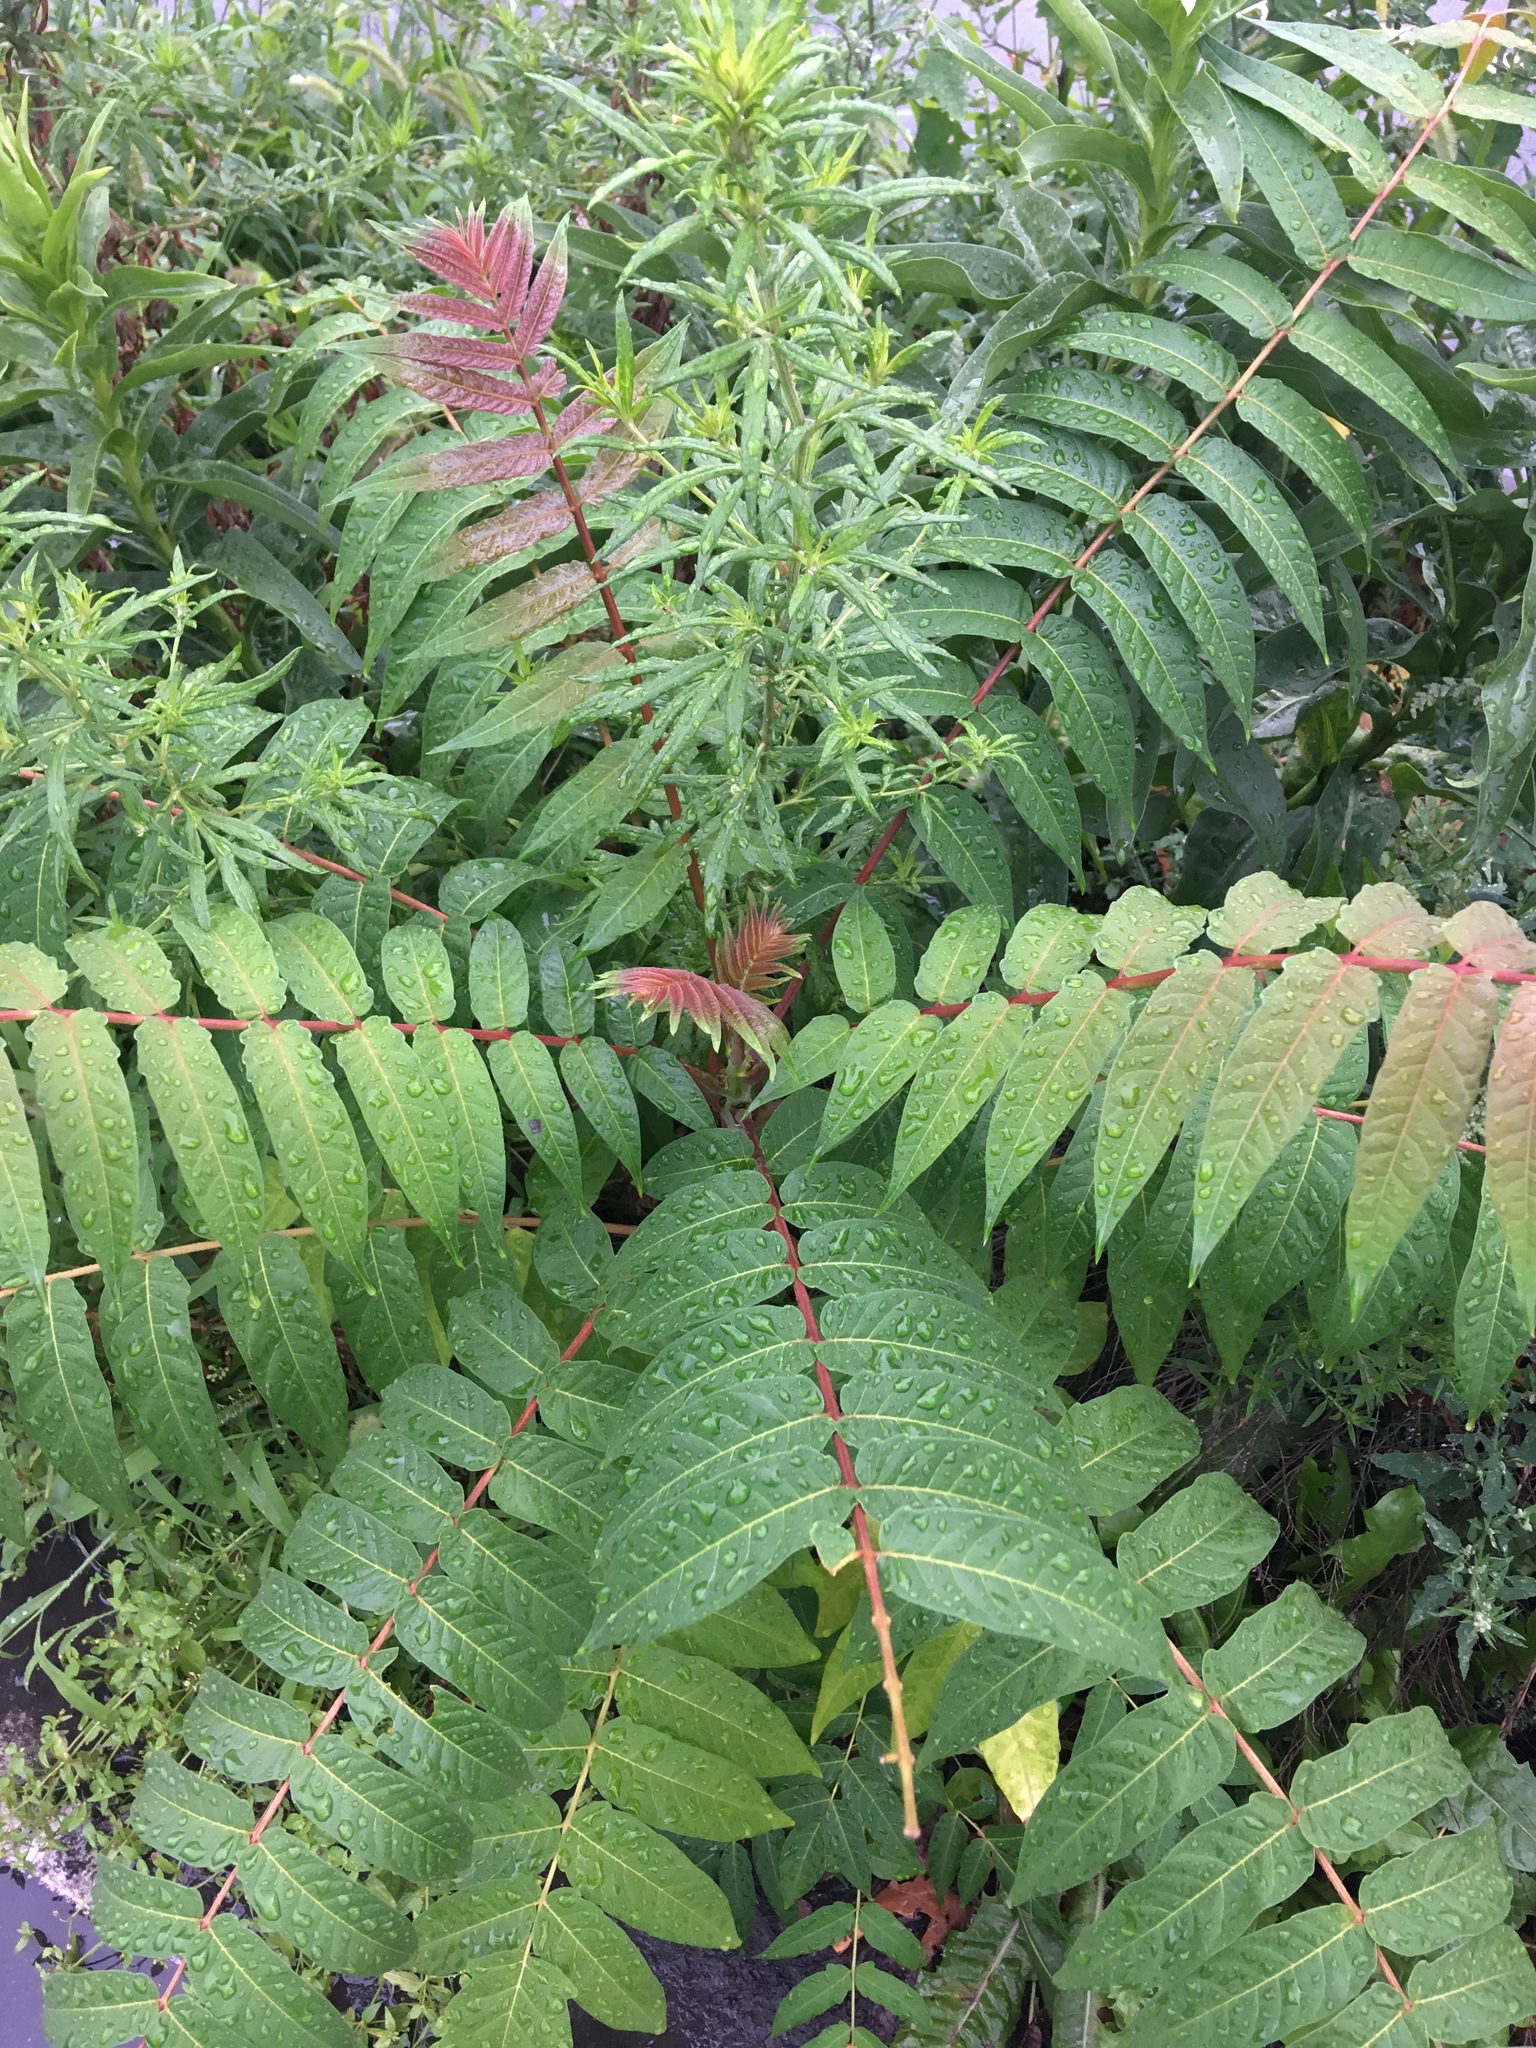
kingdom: Plantae
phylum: Tracheophyta
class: Magnoliopsida
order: Sapindales
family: Simaroubaceae
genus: Ailanthus
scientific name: Ailanthus altissima
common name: Tree-of-heaven
